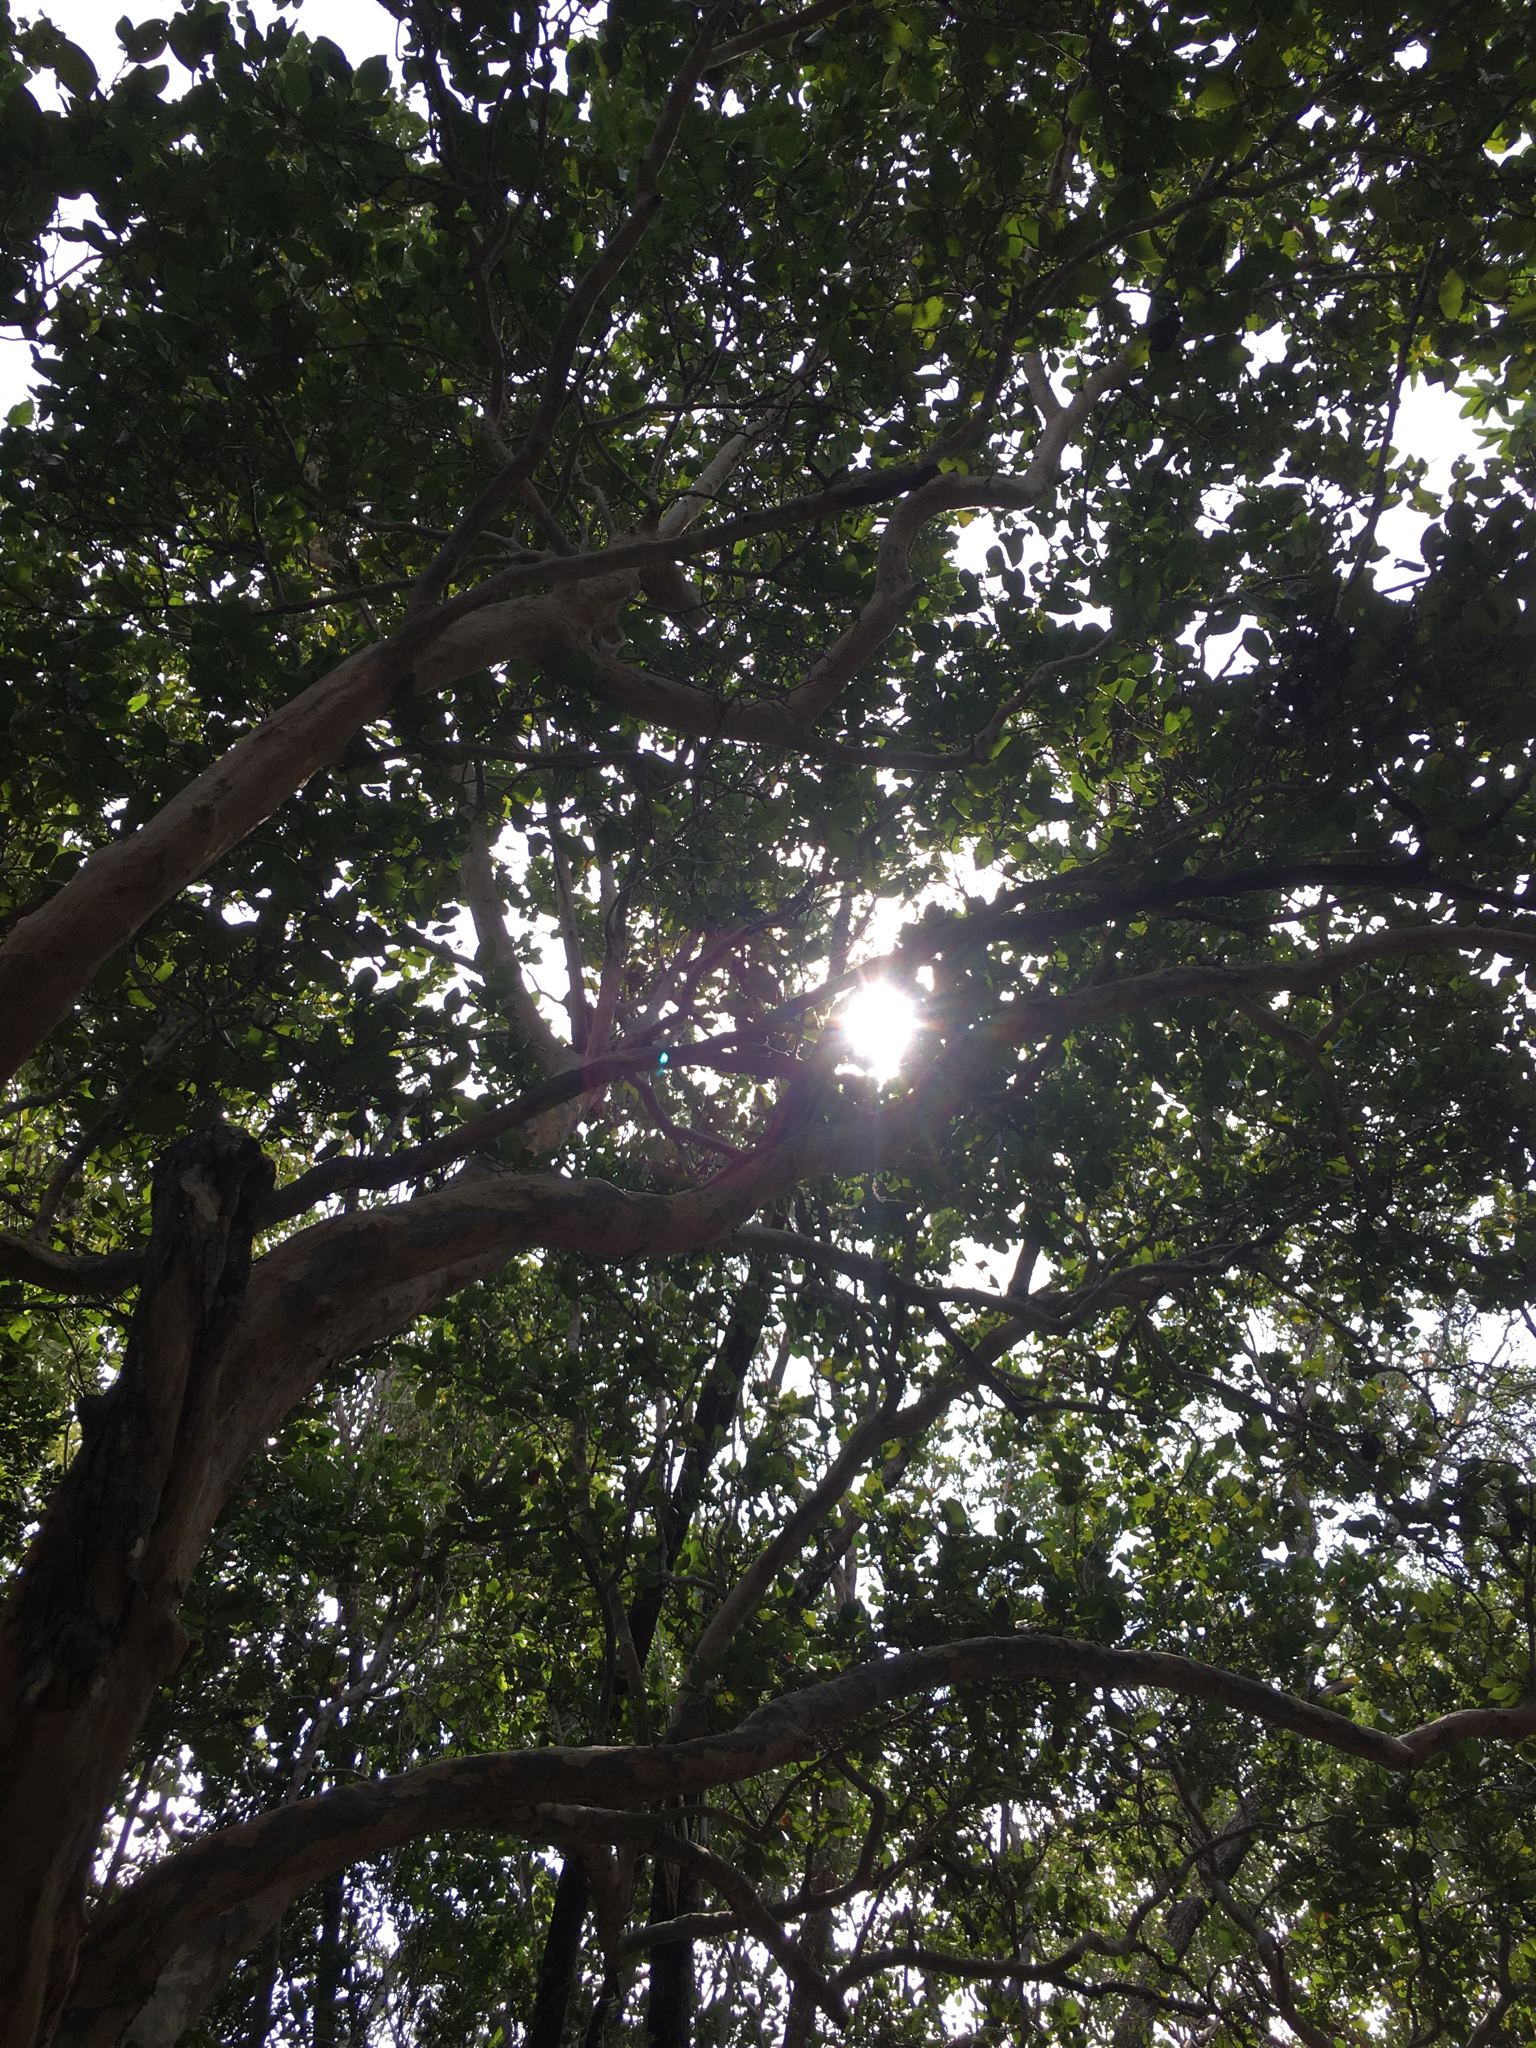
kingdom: Plantae
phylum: Tracheophyta
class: Magnoliopsida
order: Sapindales
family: Anacardiaceae
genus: Metopium
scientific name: Metopium toxiferum
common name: Florida poisontree
